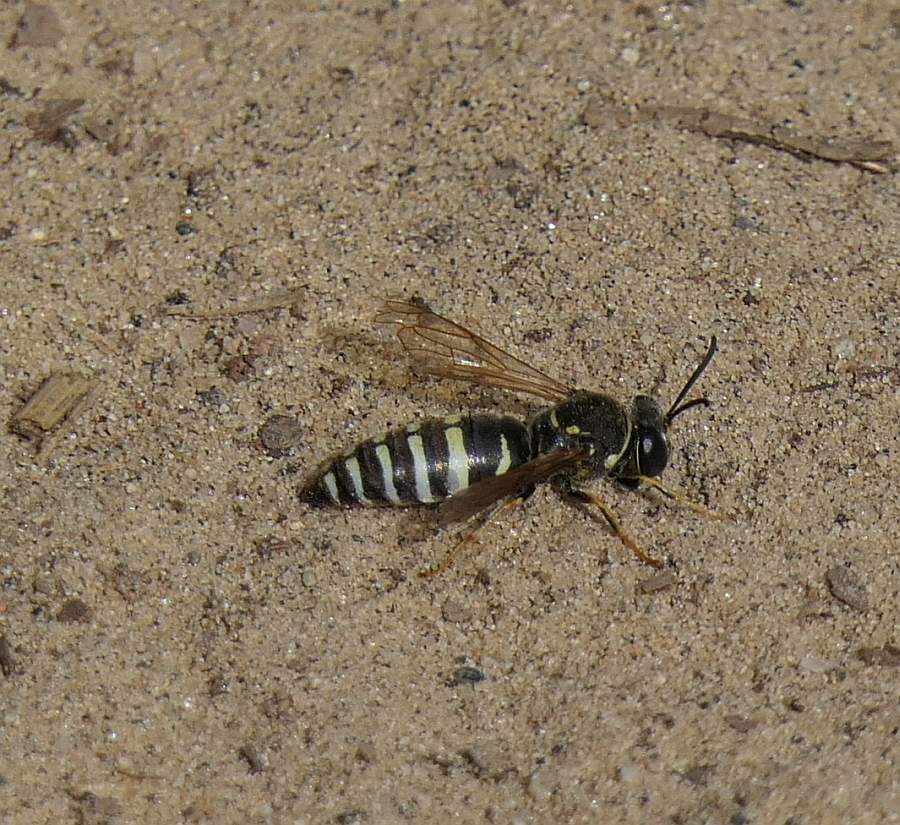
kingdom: Animalia
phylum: Arthropoda
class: Insecta
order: Hymenoptera
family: Crabronidae
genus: Bicyrtes
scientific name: Bicyrtes ventralis
